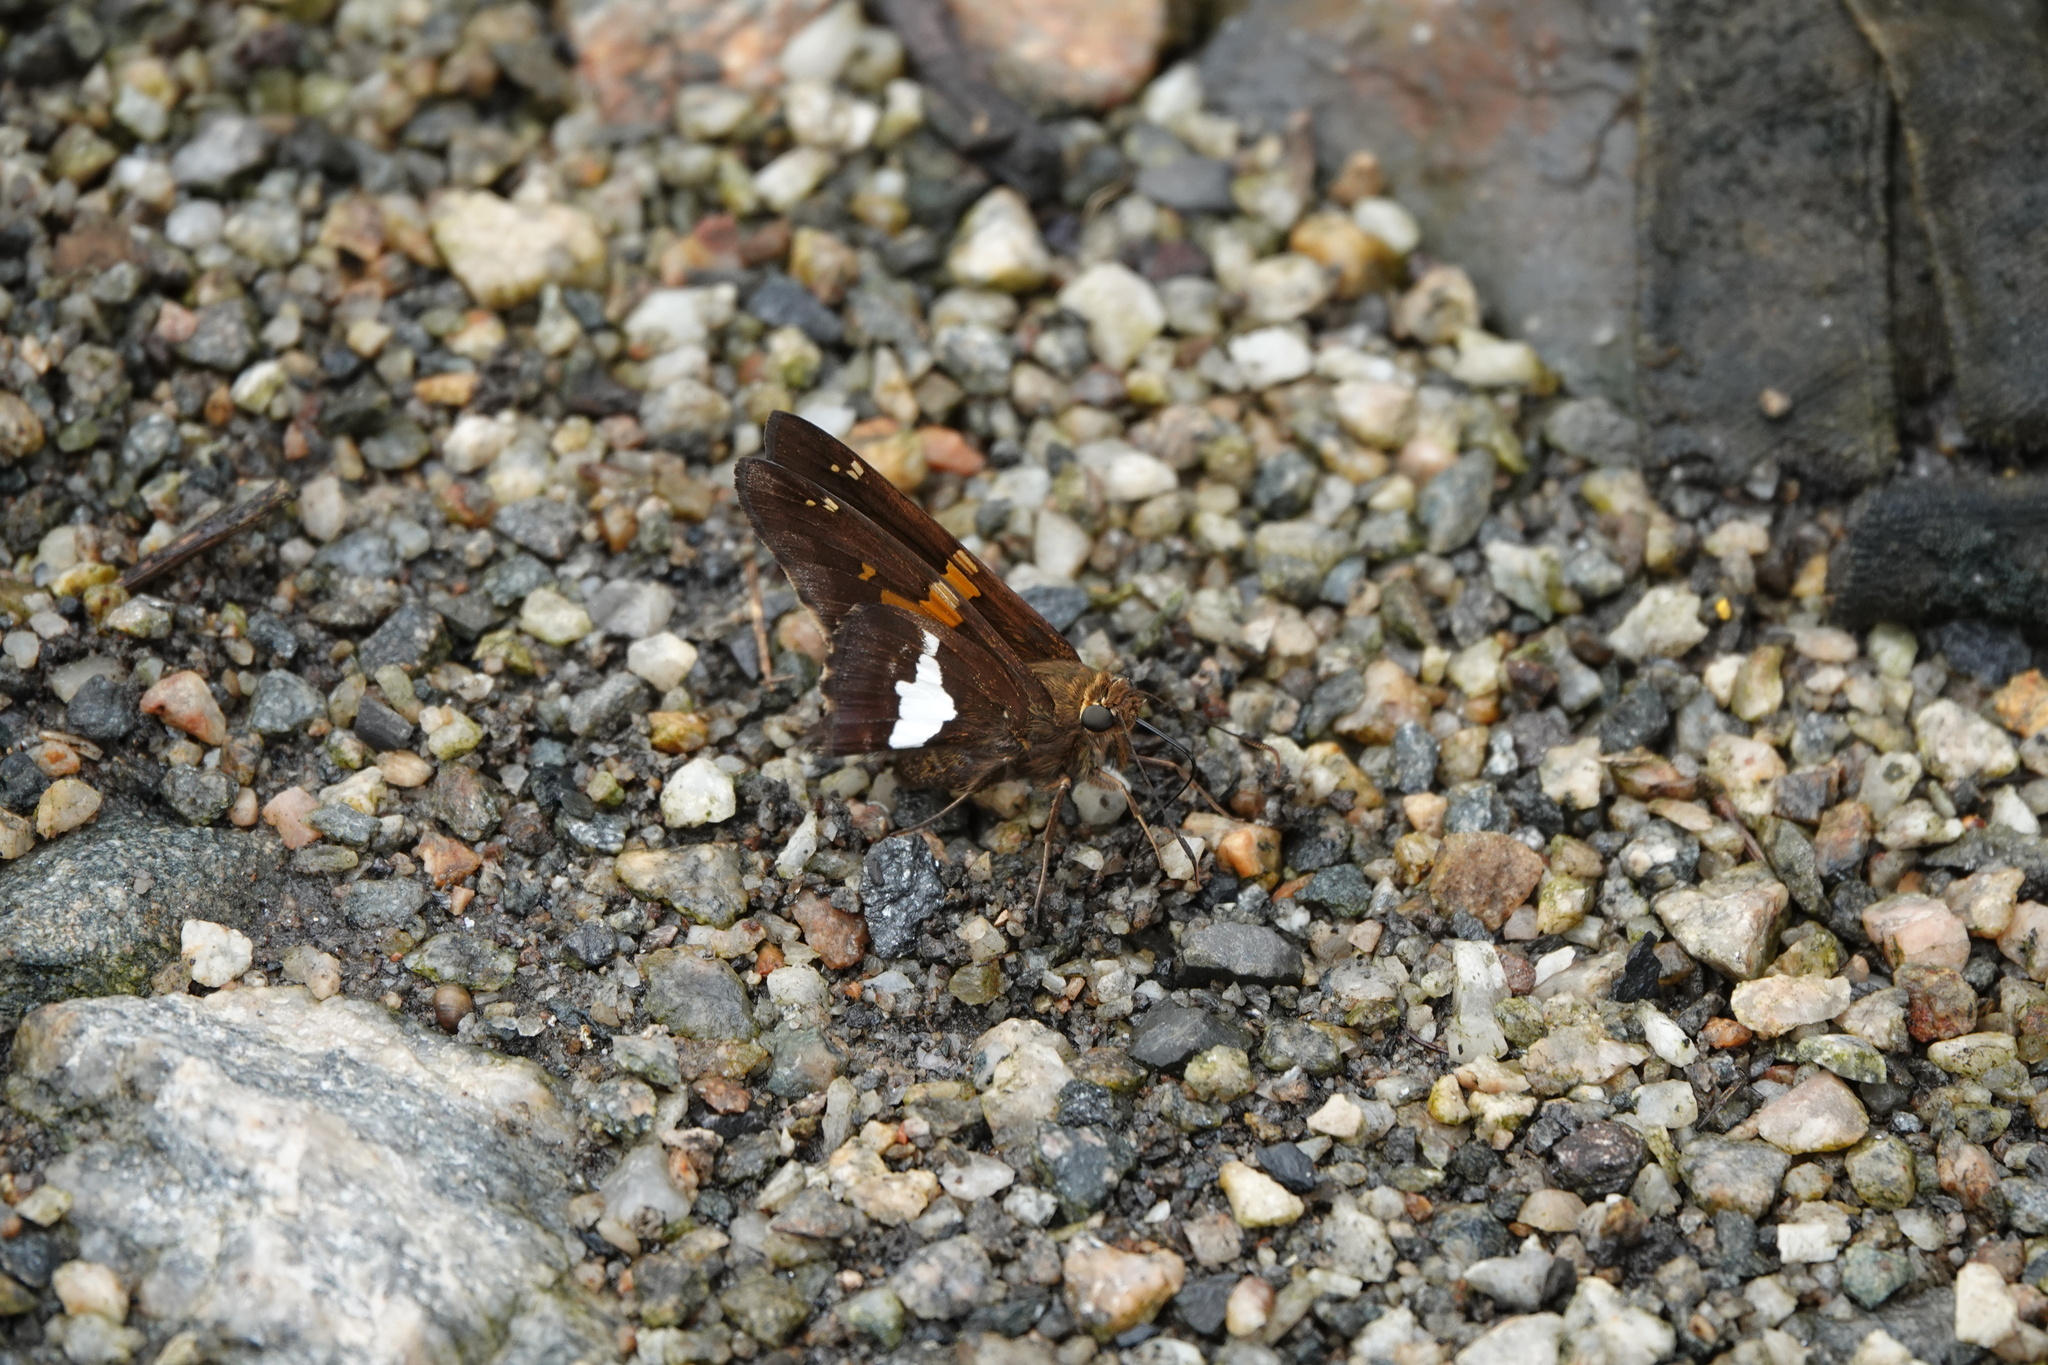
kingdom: Animalia
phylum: Arthropoda
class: Insecta
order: Lepidoptera
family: Hesperiidae
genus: Epargyreus
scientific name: Epargyreus clarus
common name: Silver-spotted skipper
